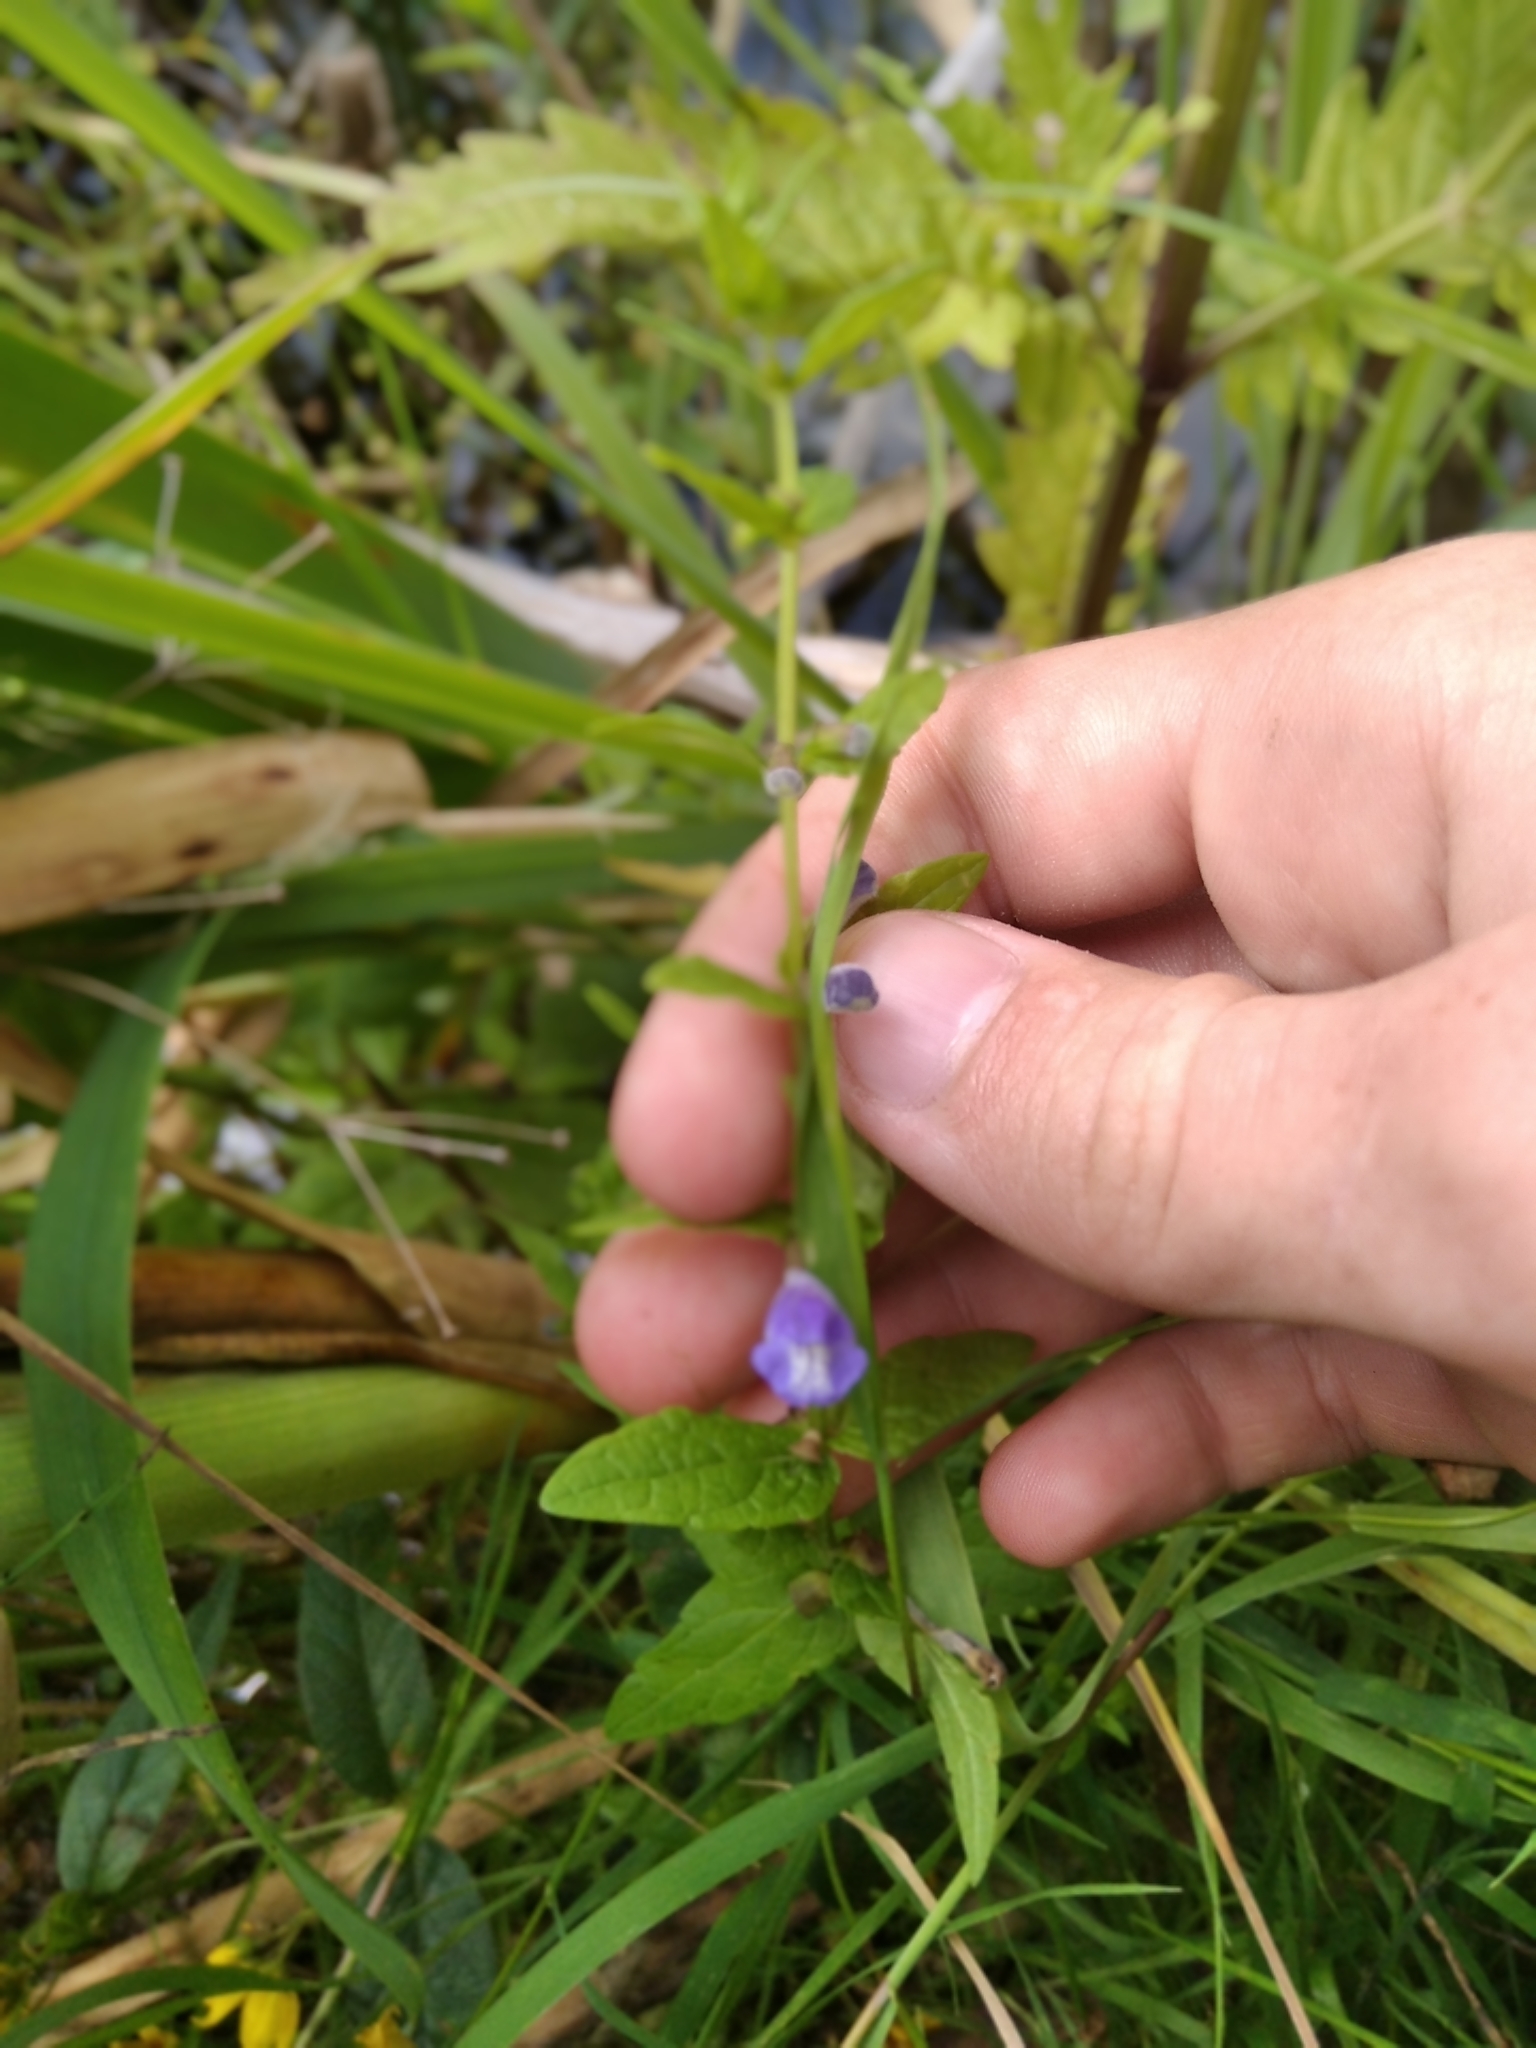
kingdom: Plantae
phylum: Tracheophyta
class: Magnoliopsida
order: Lamiales
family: Lamiaceae
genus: Scutellaria
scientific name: Scutellaria galericulata
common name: Skullcap
